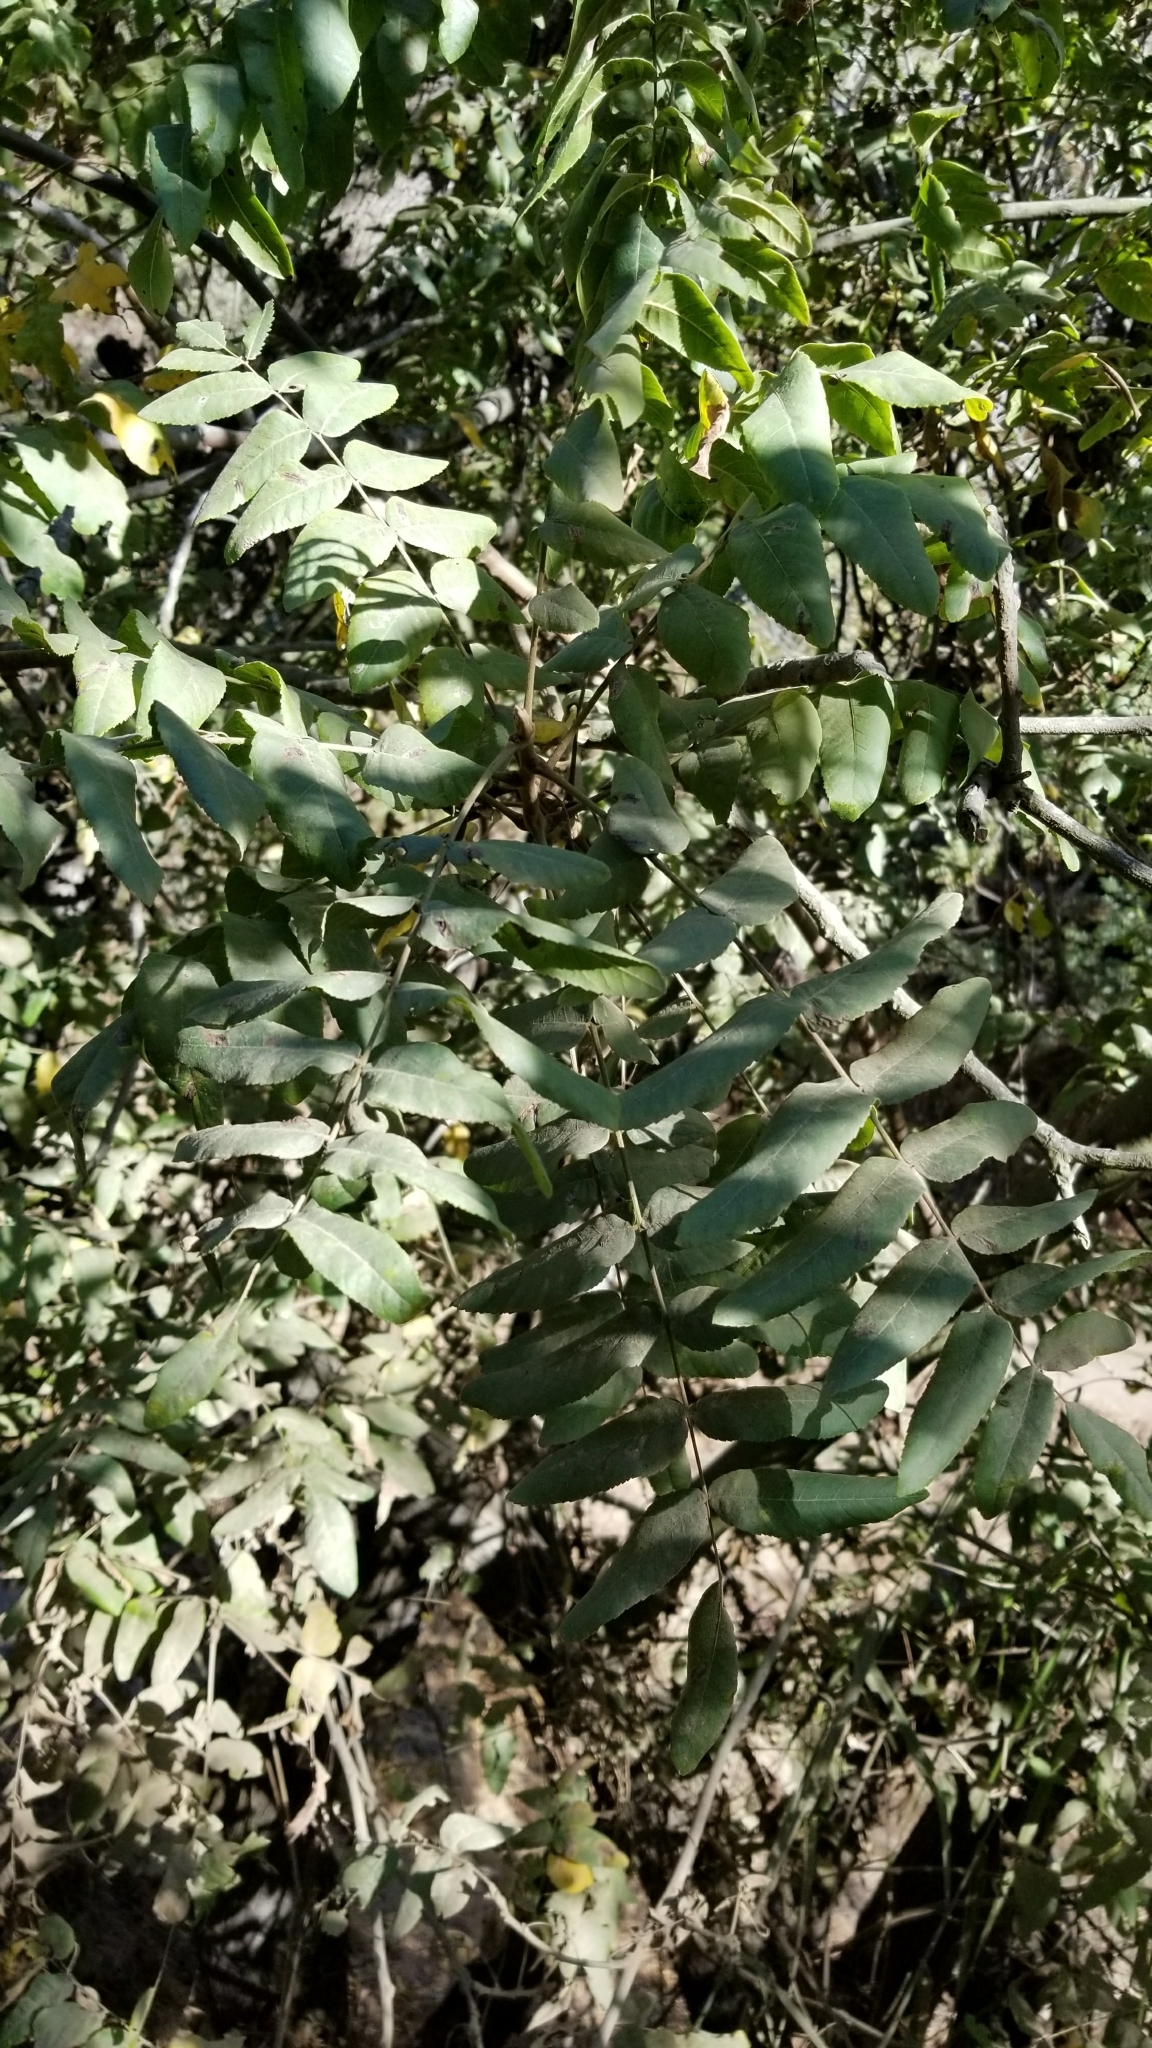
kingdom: Plantae
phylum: Tracheophyta
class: Magnoliopsida
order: Fagales
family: Juglandaceae
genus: Juglans
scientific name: Juglans californica
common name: Southern california black walnut
